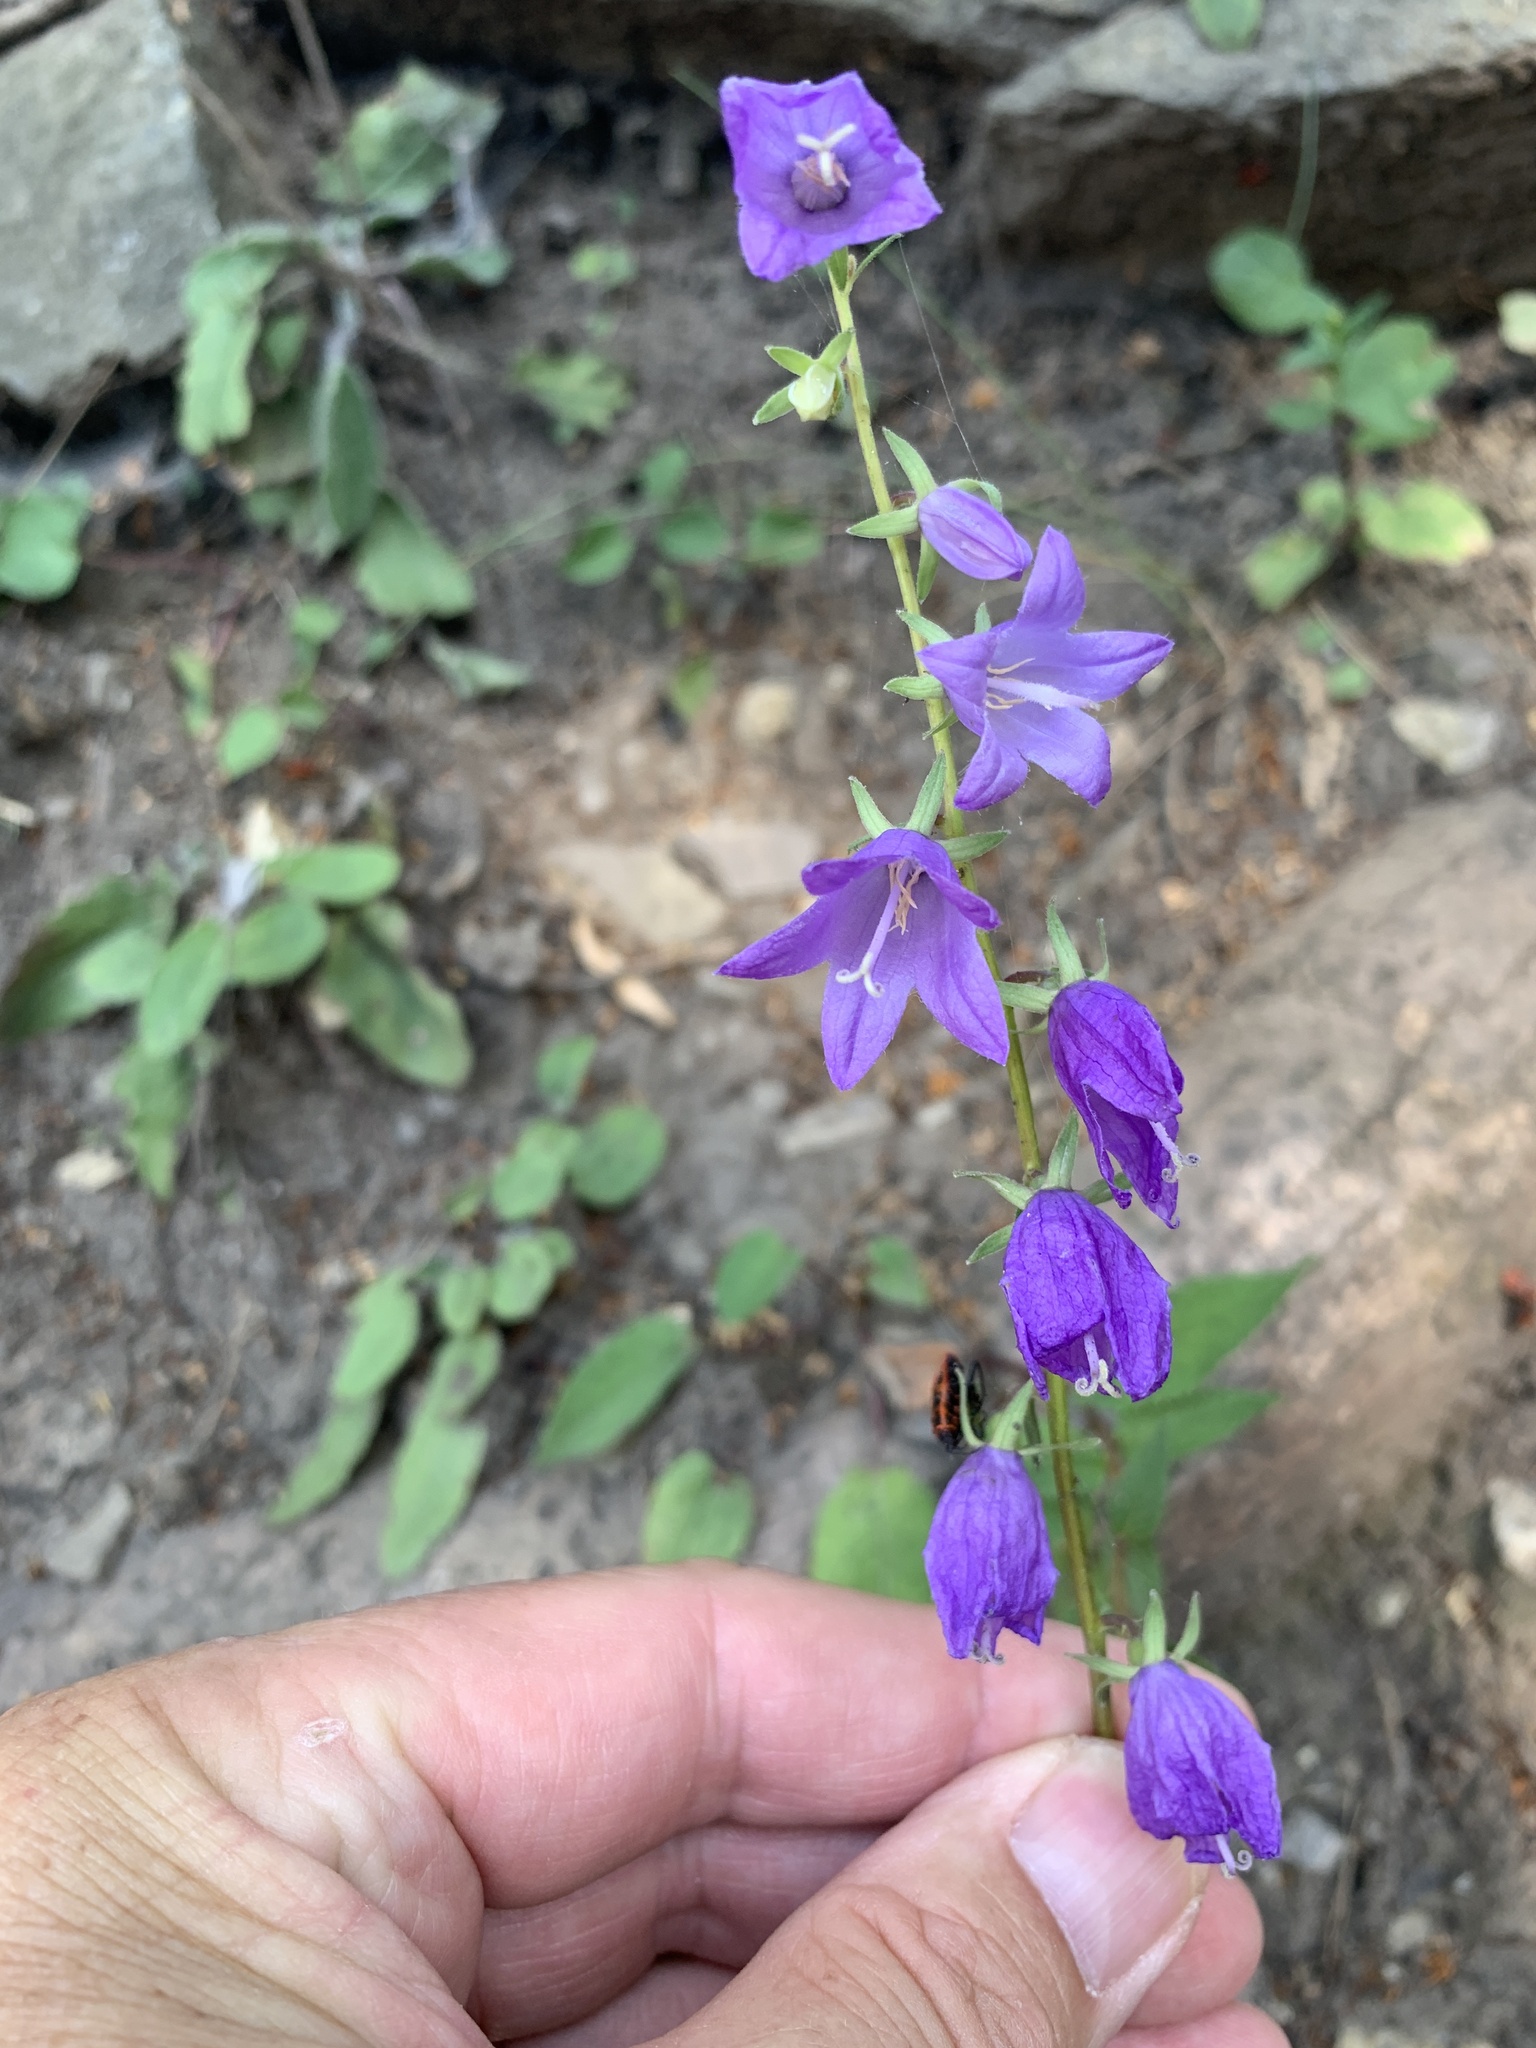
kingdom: Plantae
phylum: Tracheophyta
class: Magnoliopsida
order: Asterales
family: Campanulaceae
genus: Campanula
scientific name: Campanula rapunculoides
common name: Creeping bellflower
